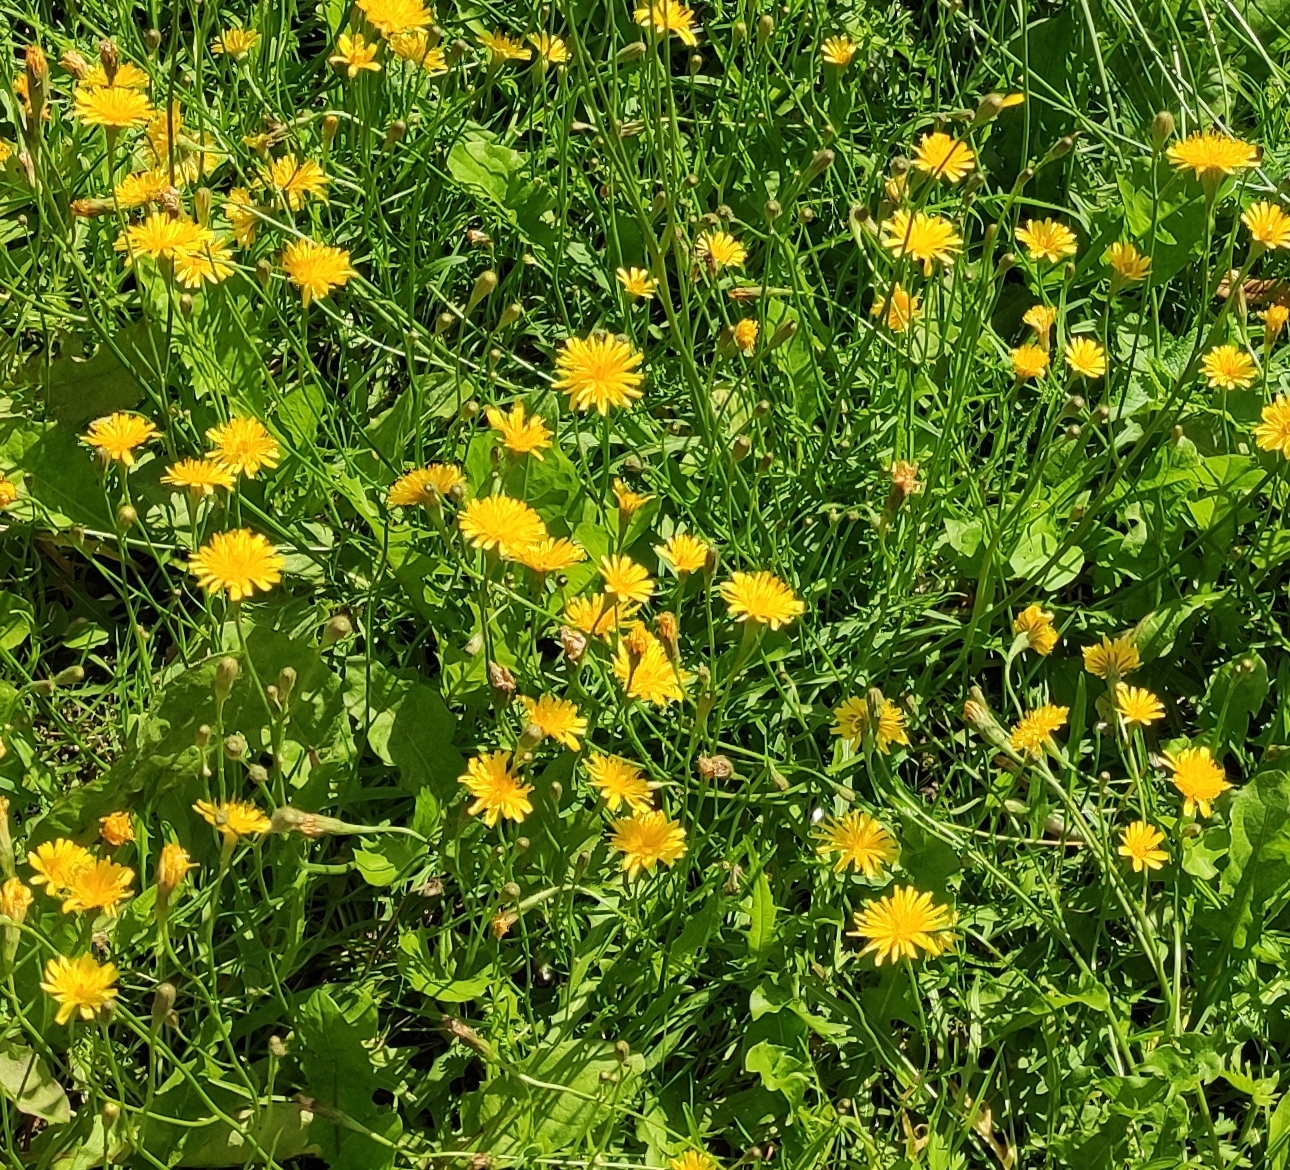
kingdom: Plantae
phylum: Tracheophyta
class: Magnoliopsida
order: Asterales
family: Asteraceae
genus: Scorzoneroides
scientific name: Scorzoneroides autumnalis
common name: Autumn hawkbit
